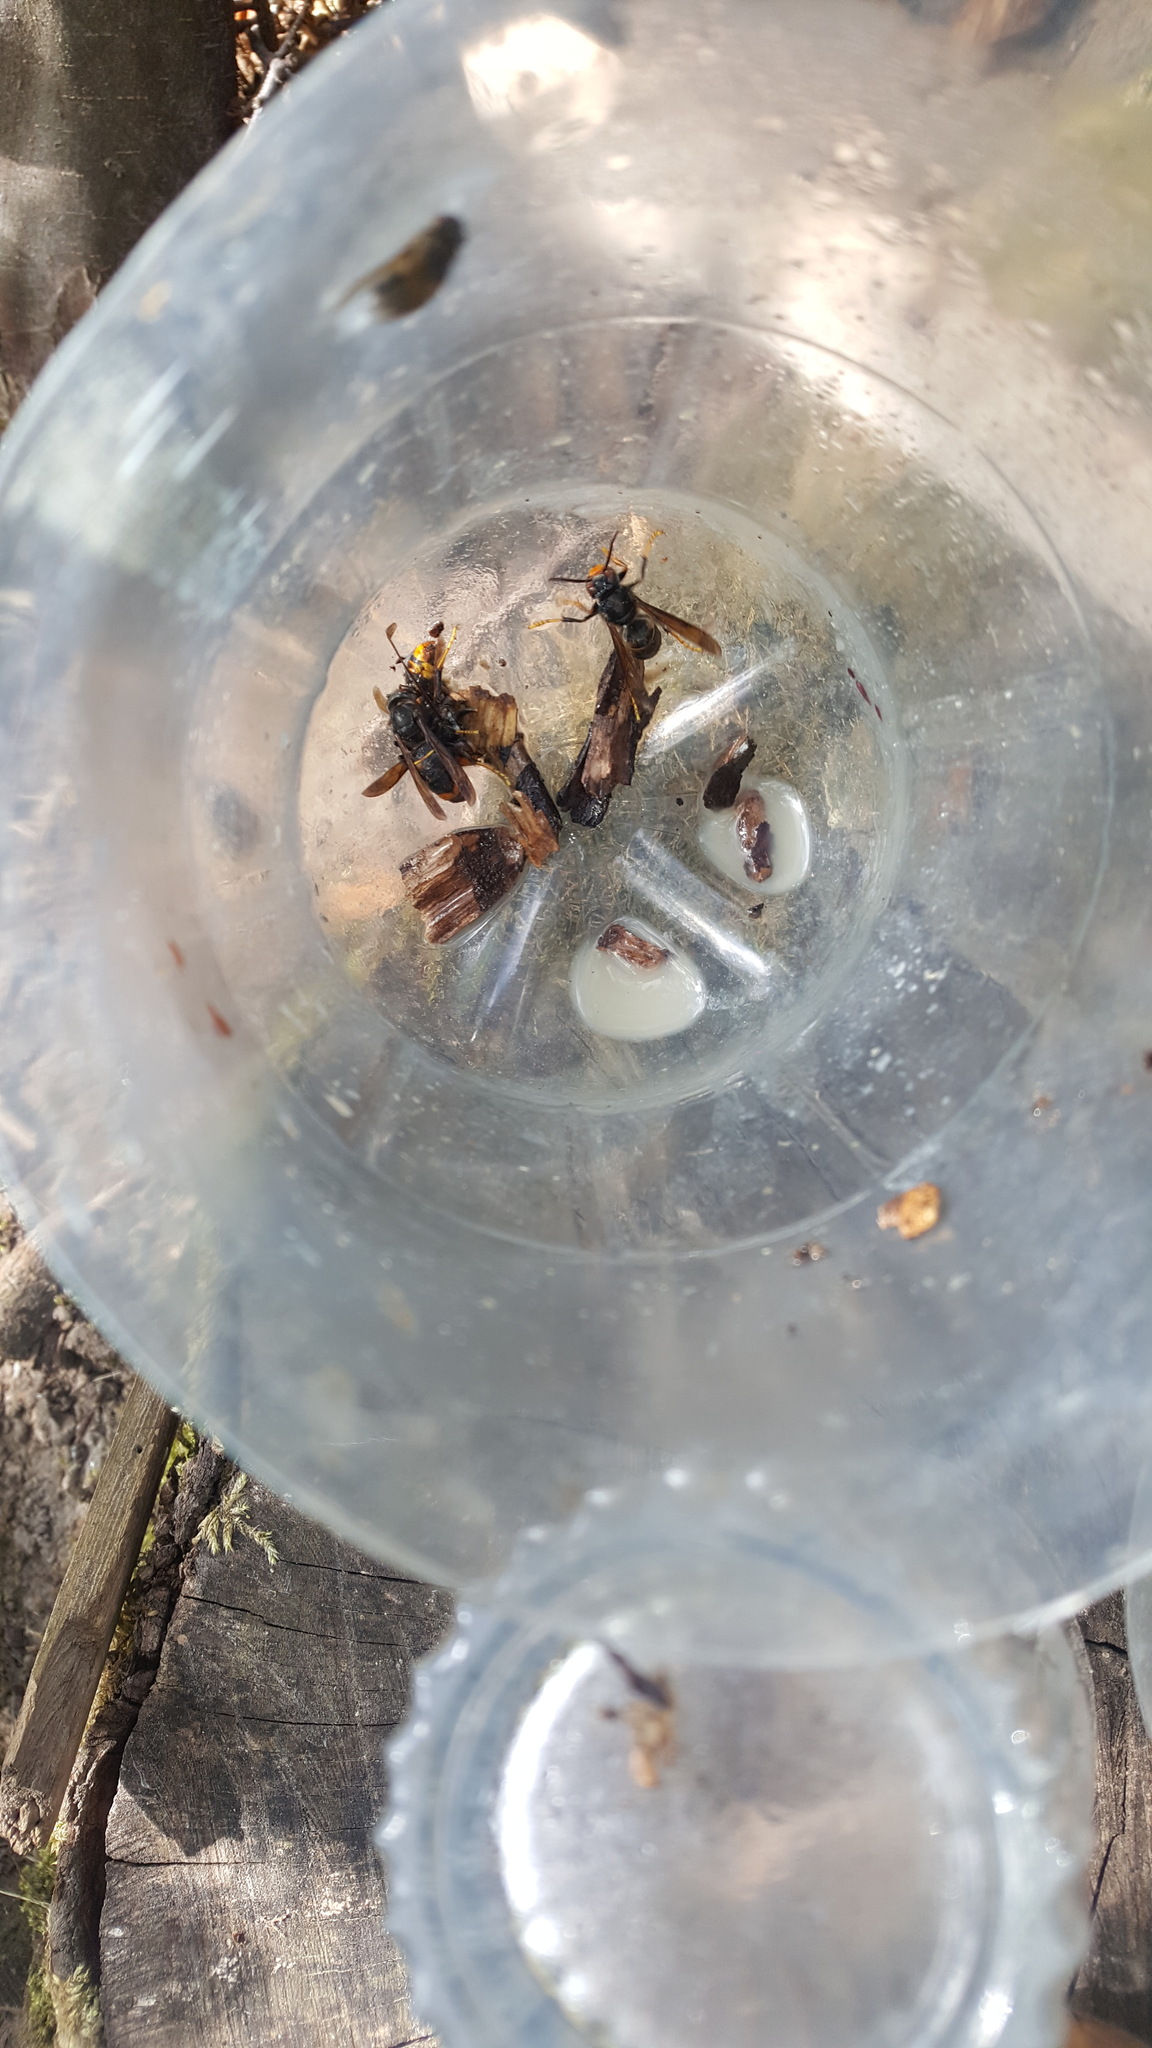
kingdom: Animalia
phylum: Arthropoda
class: Insecta
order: Hymenoptera
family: Vespidae
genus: Vespa
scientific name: Vespa velutina
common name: Asian hornet
